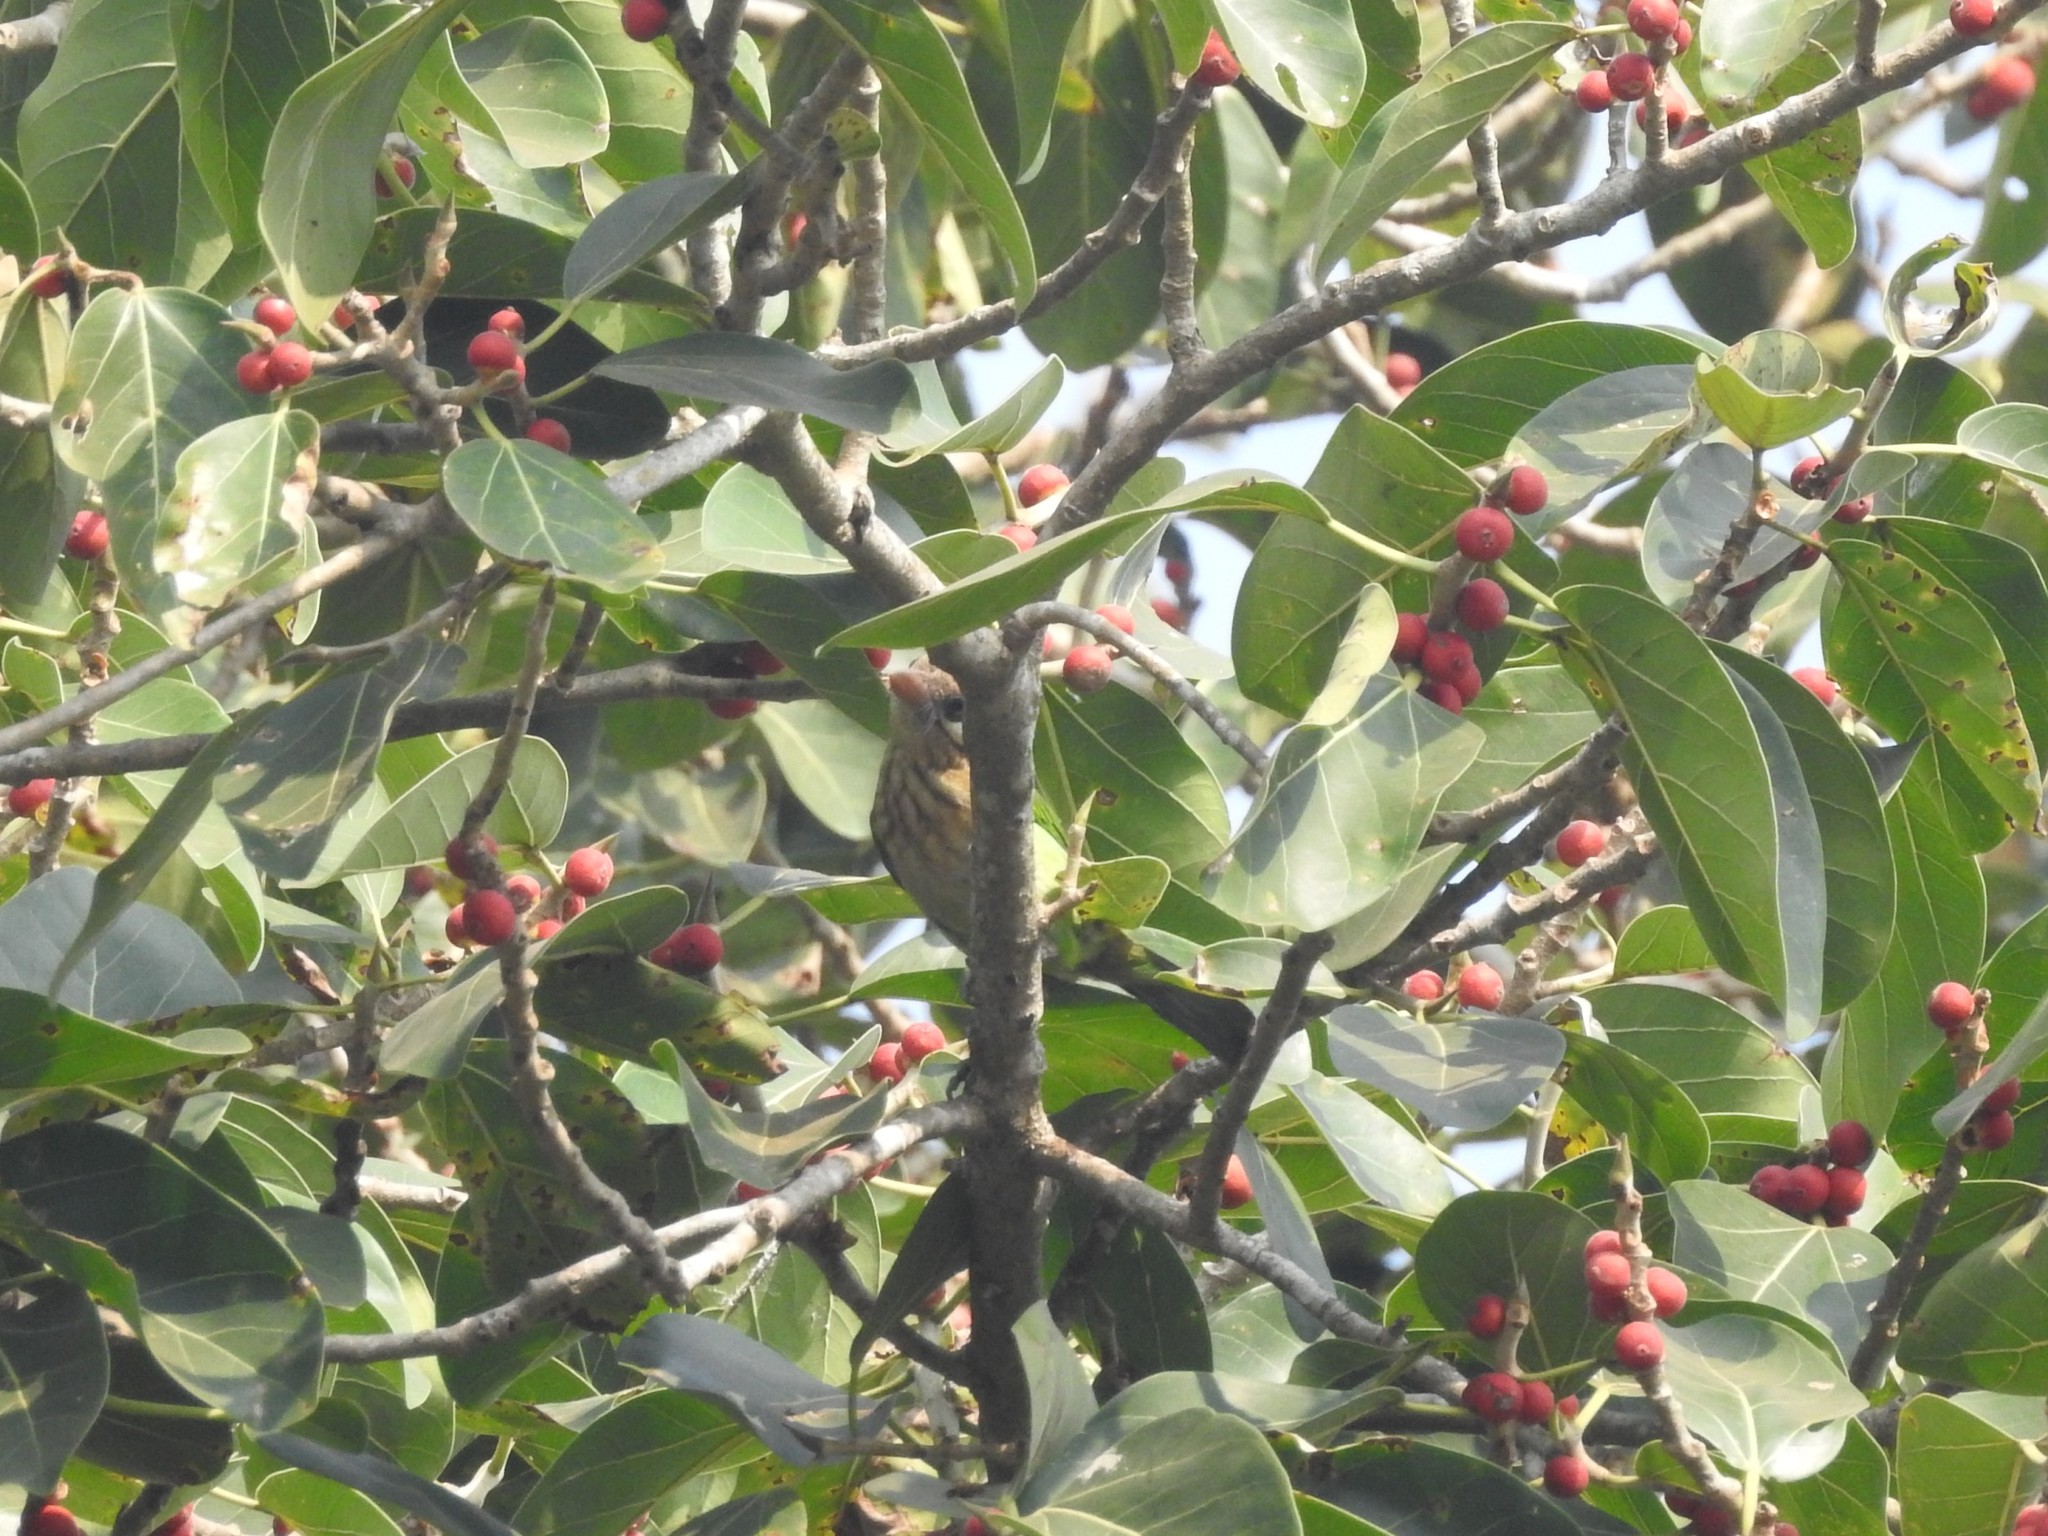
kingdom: Animalia
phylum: Chordata
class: Aves
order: Piciformes
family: Megalaimidae
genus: Psilopogon
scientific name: Psilopogon viridis
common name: White-cheeked barbet
